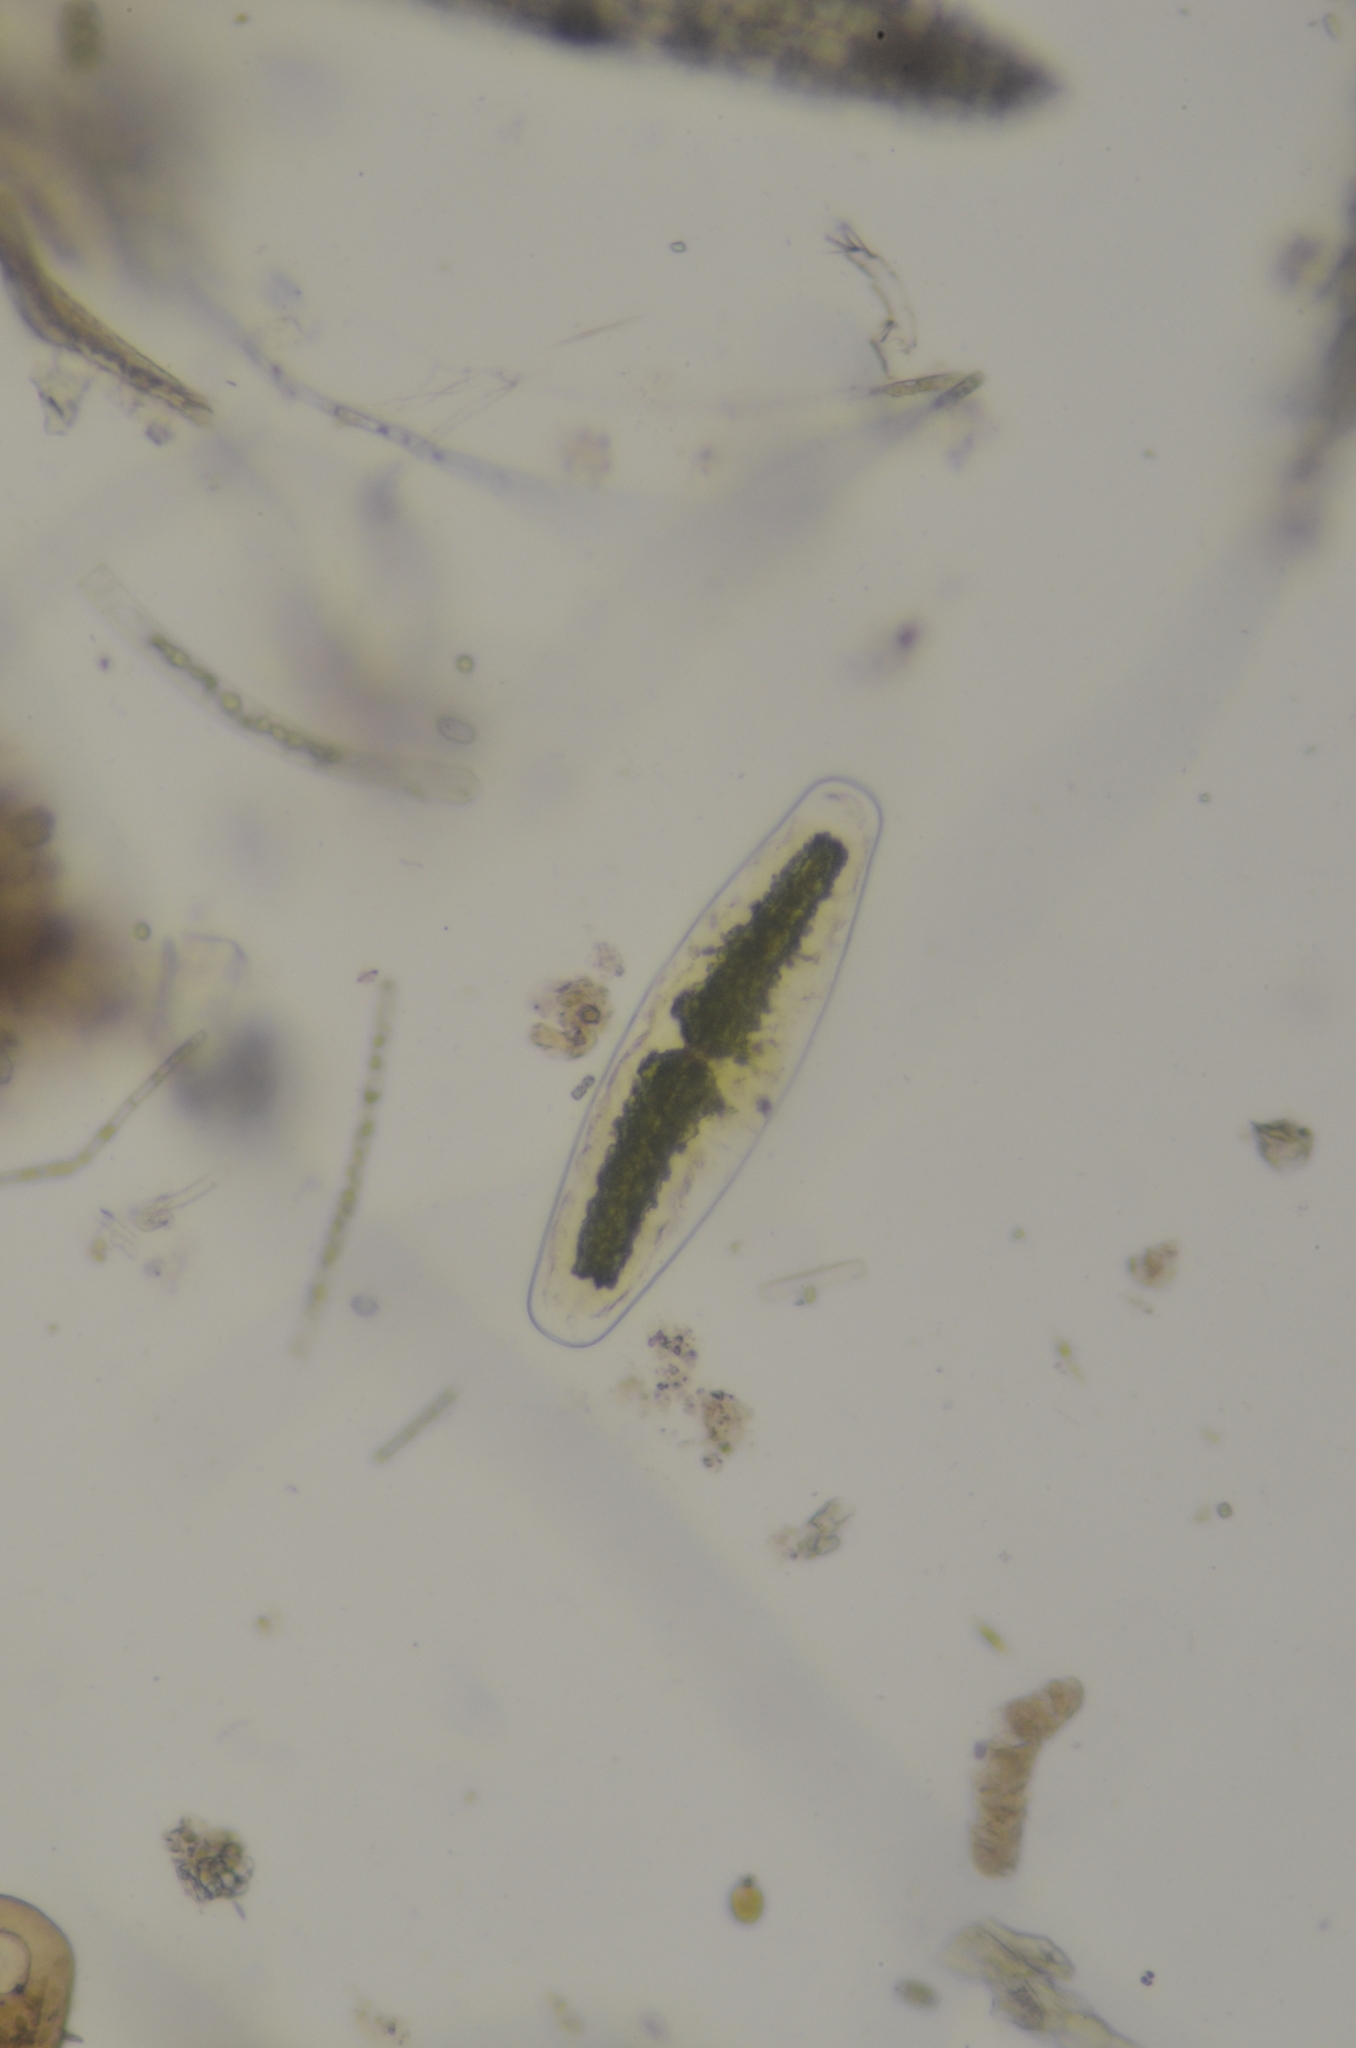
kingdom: Plantae
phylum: Charophyta
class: Zygnematophyceae
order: Zygnematales
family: Mesotaeniaceae
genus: Netrium
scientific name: Netrium digitus
